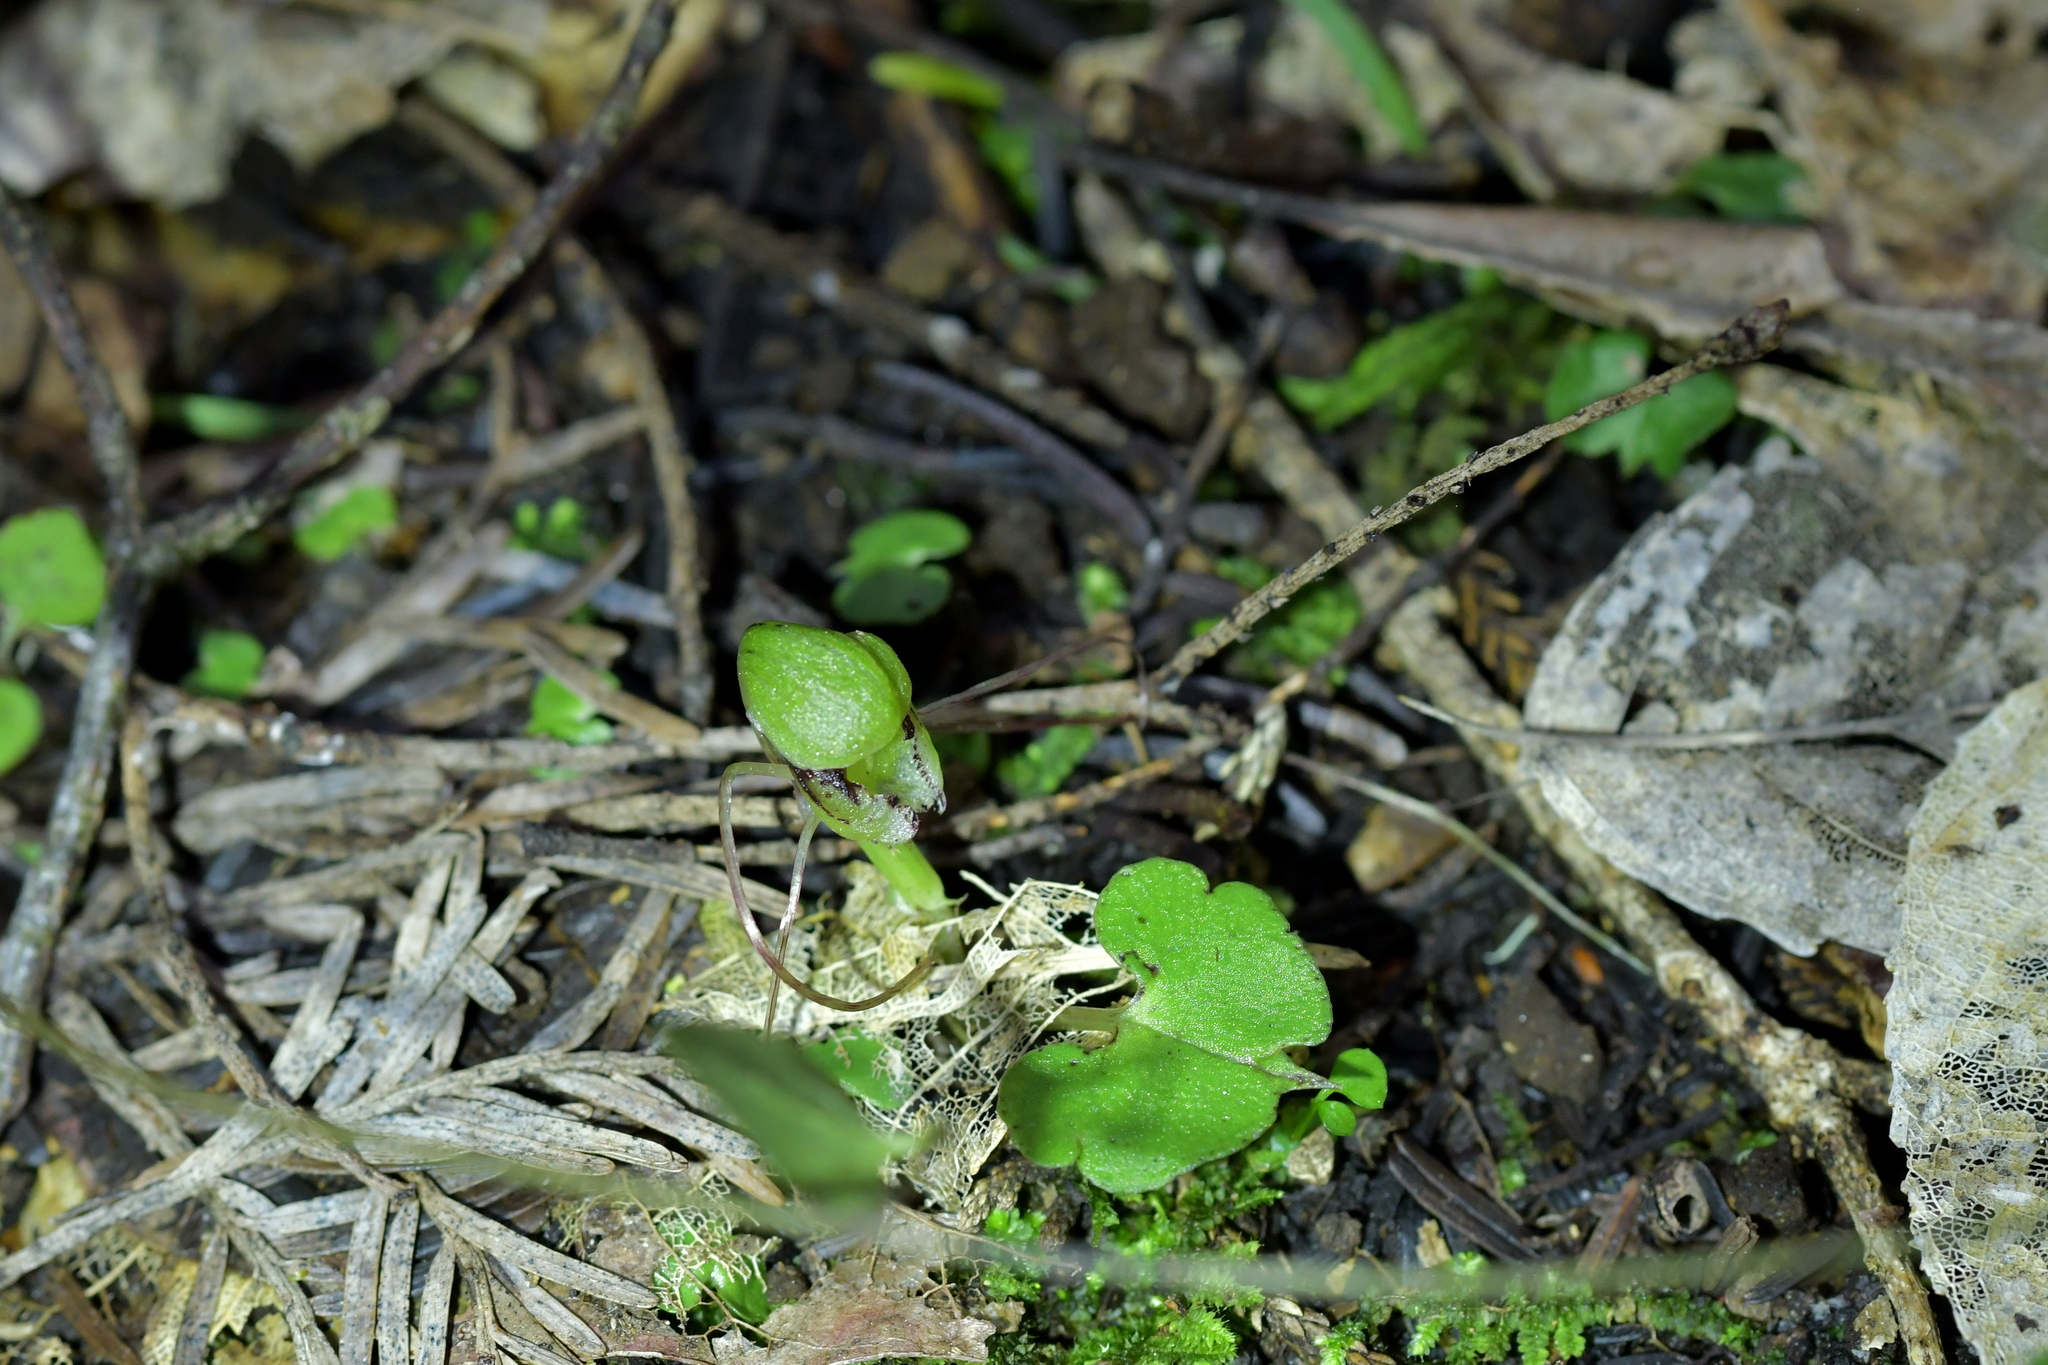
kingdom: Plantae
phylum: Tracheophyta
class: Liliopsida
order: Asparagales
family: Orchidaceae
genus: Corybas
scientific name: Corybas vitreus
